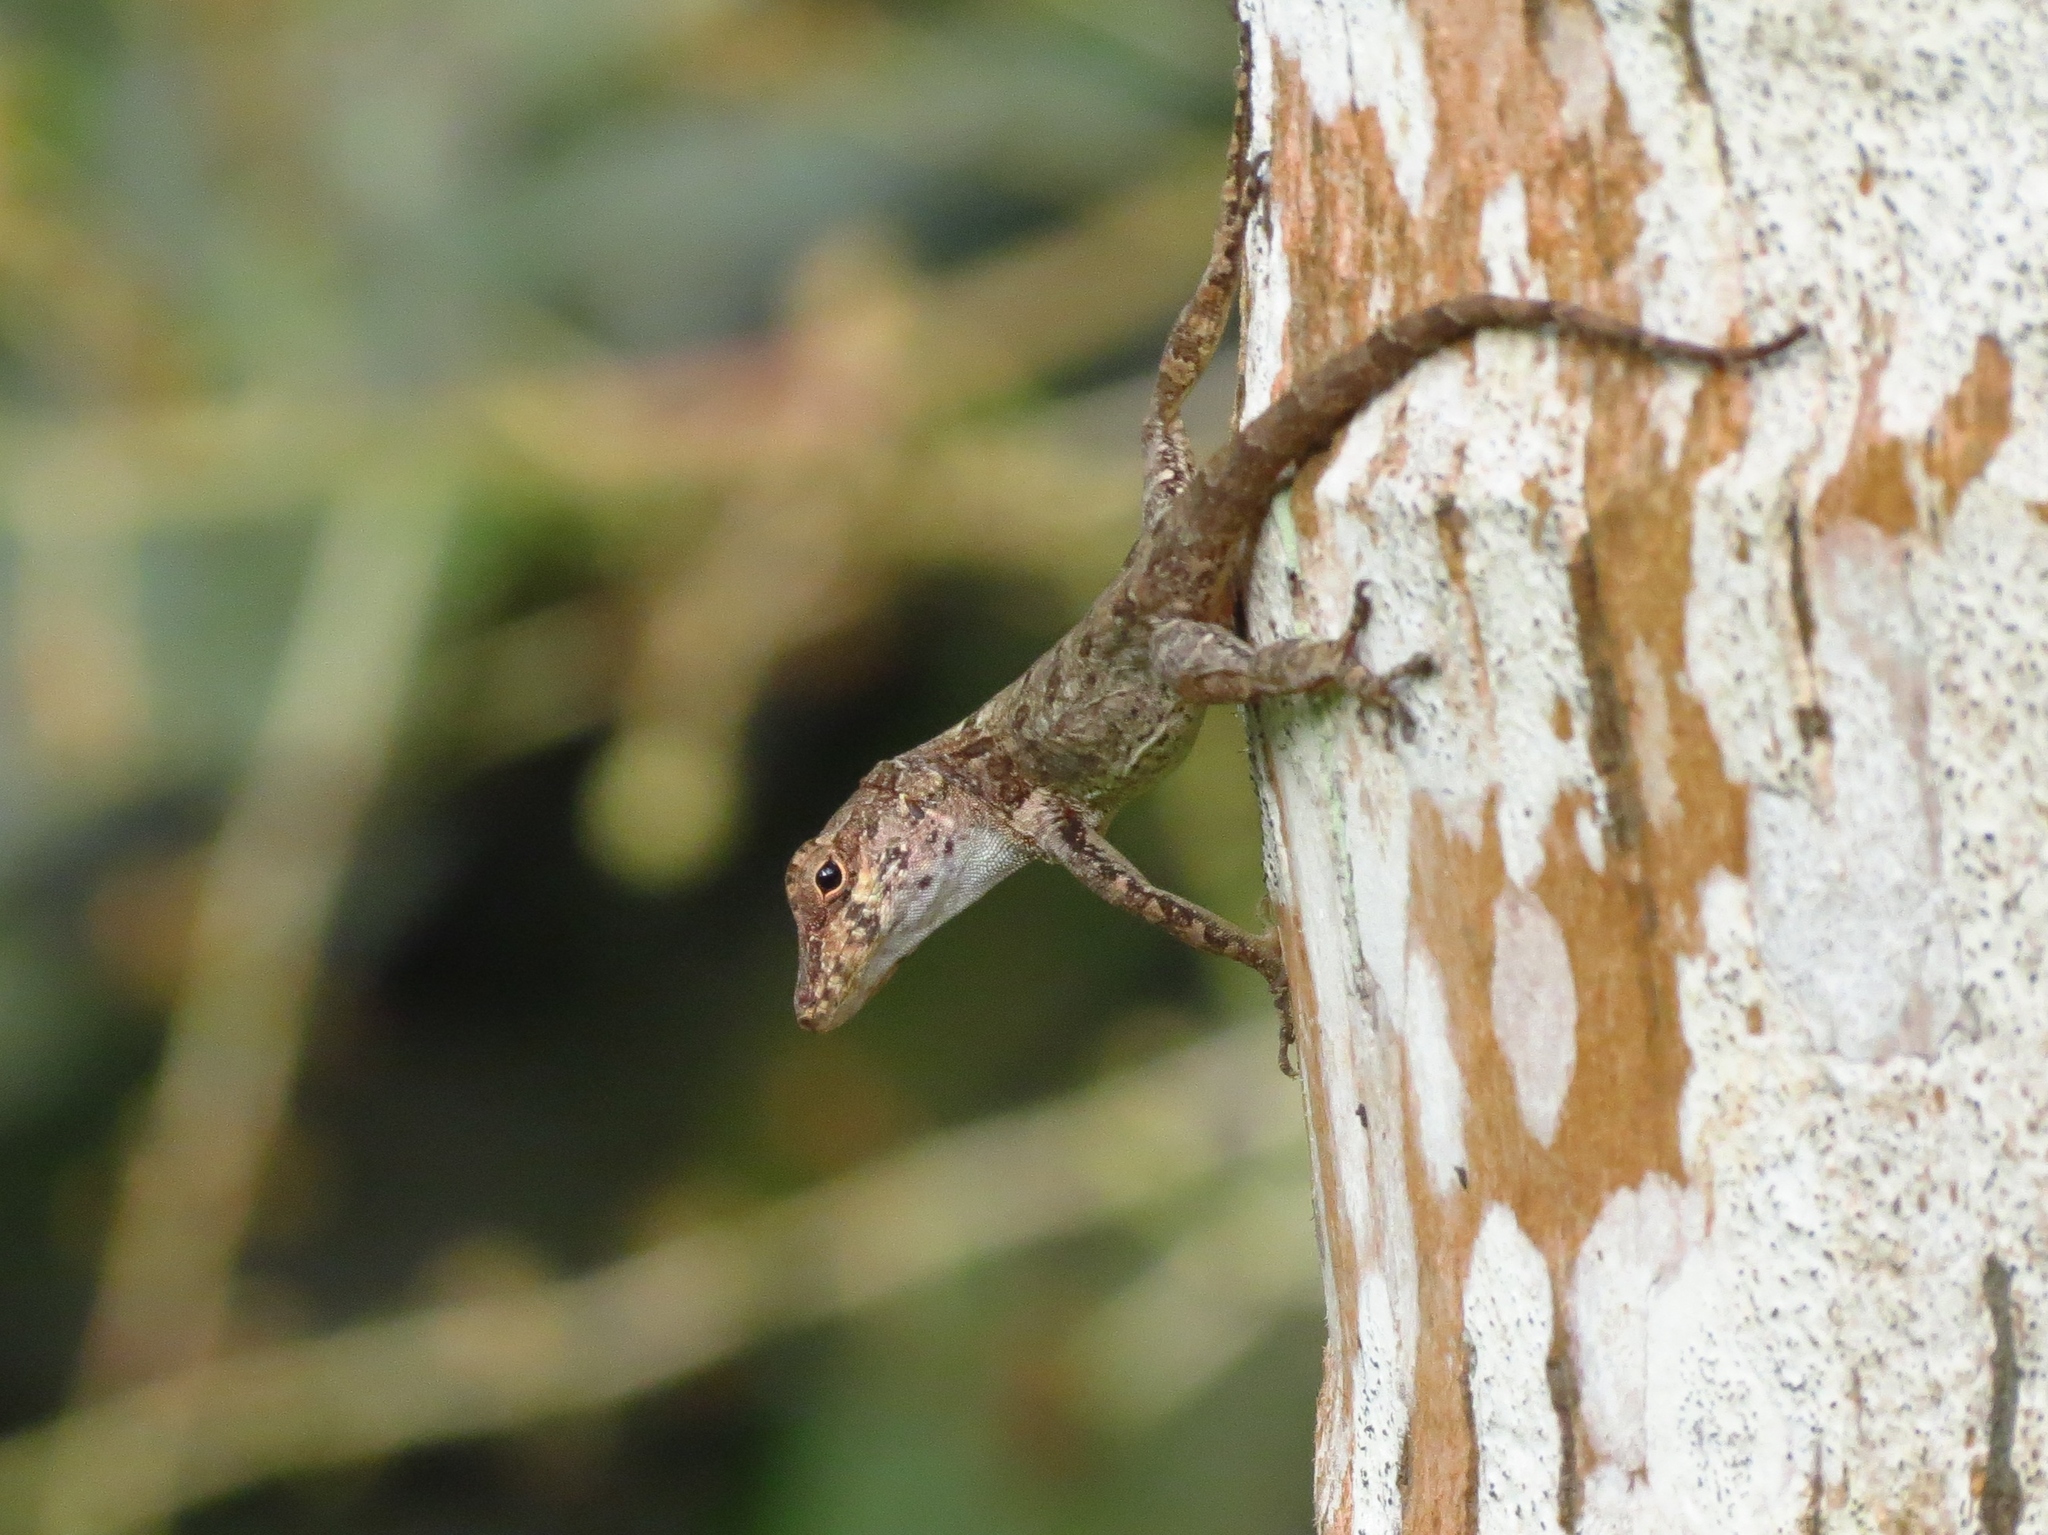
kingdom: Animalia
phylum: Chordata
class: Squamata
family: Dactyloidae
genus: Anolis
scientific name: Anolis cristatellus
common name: Crested anole
